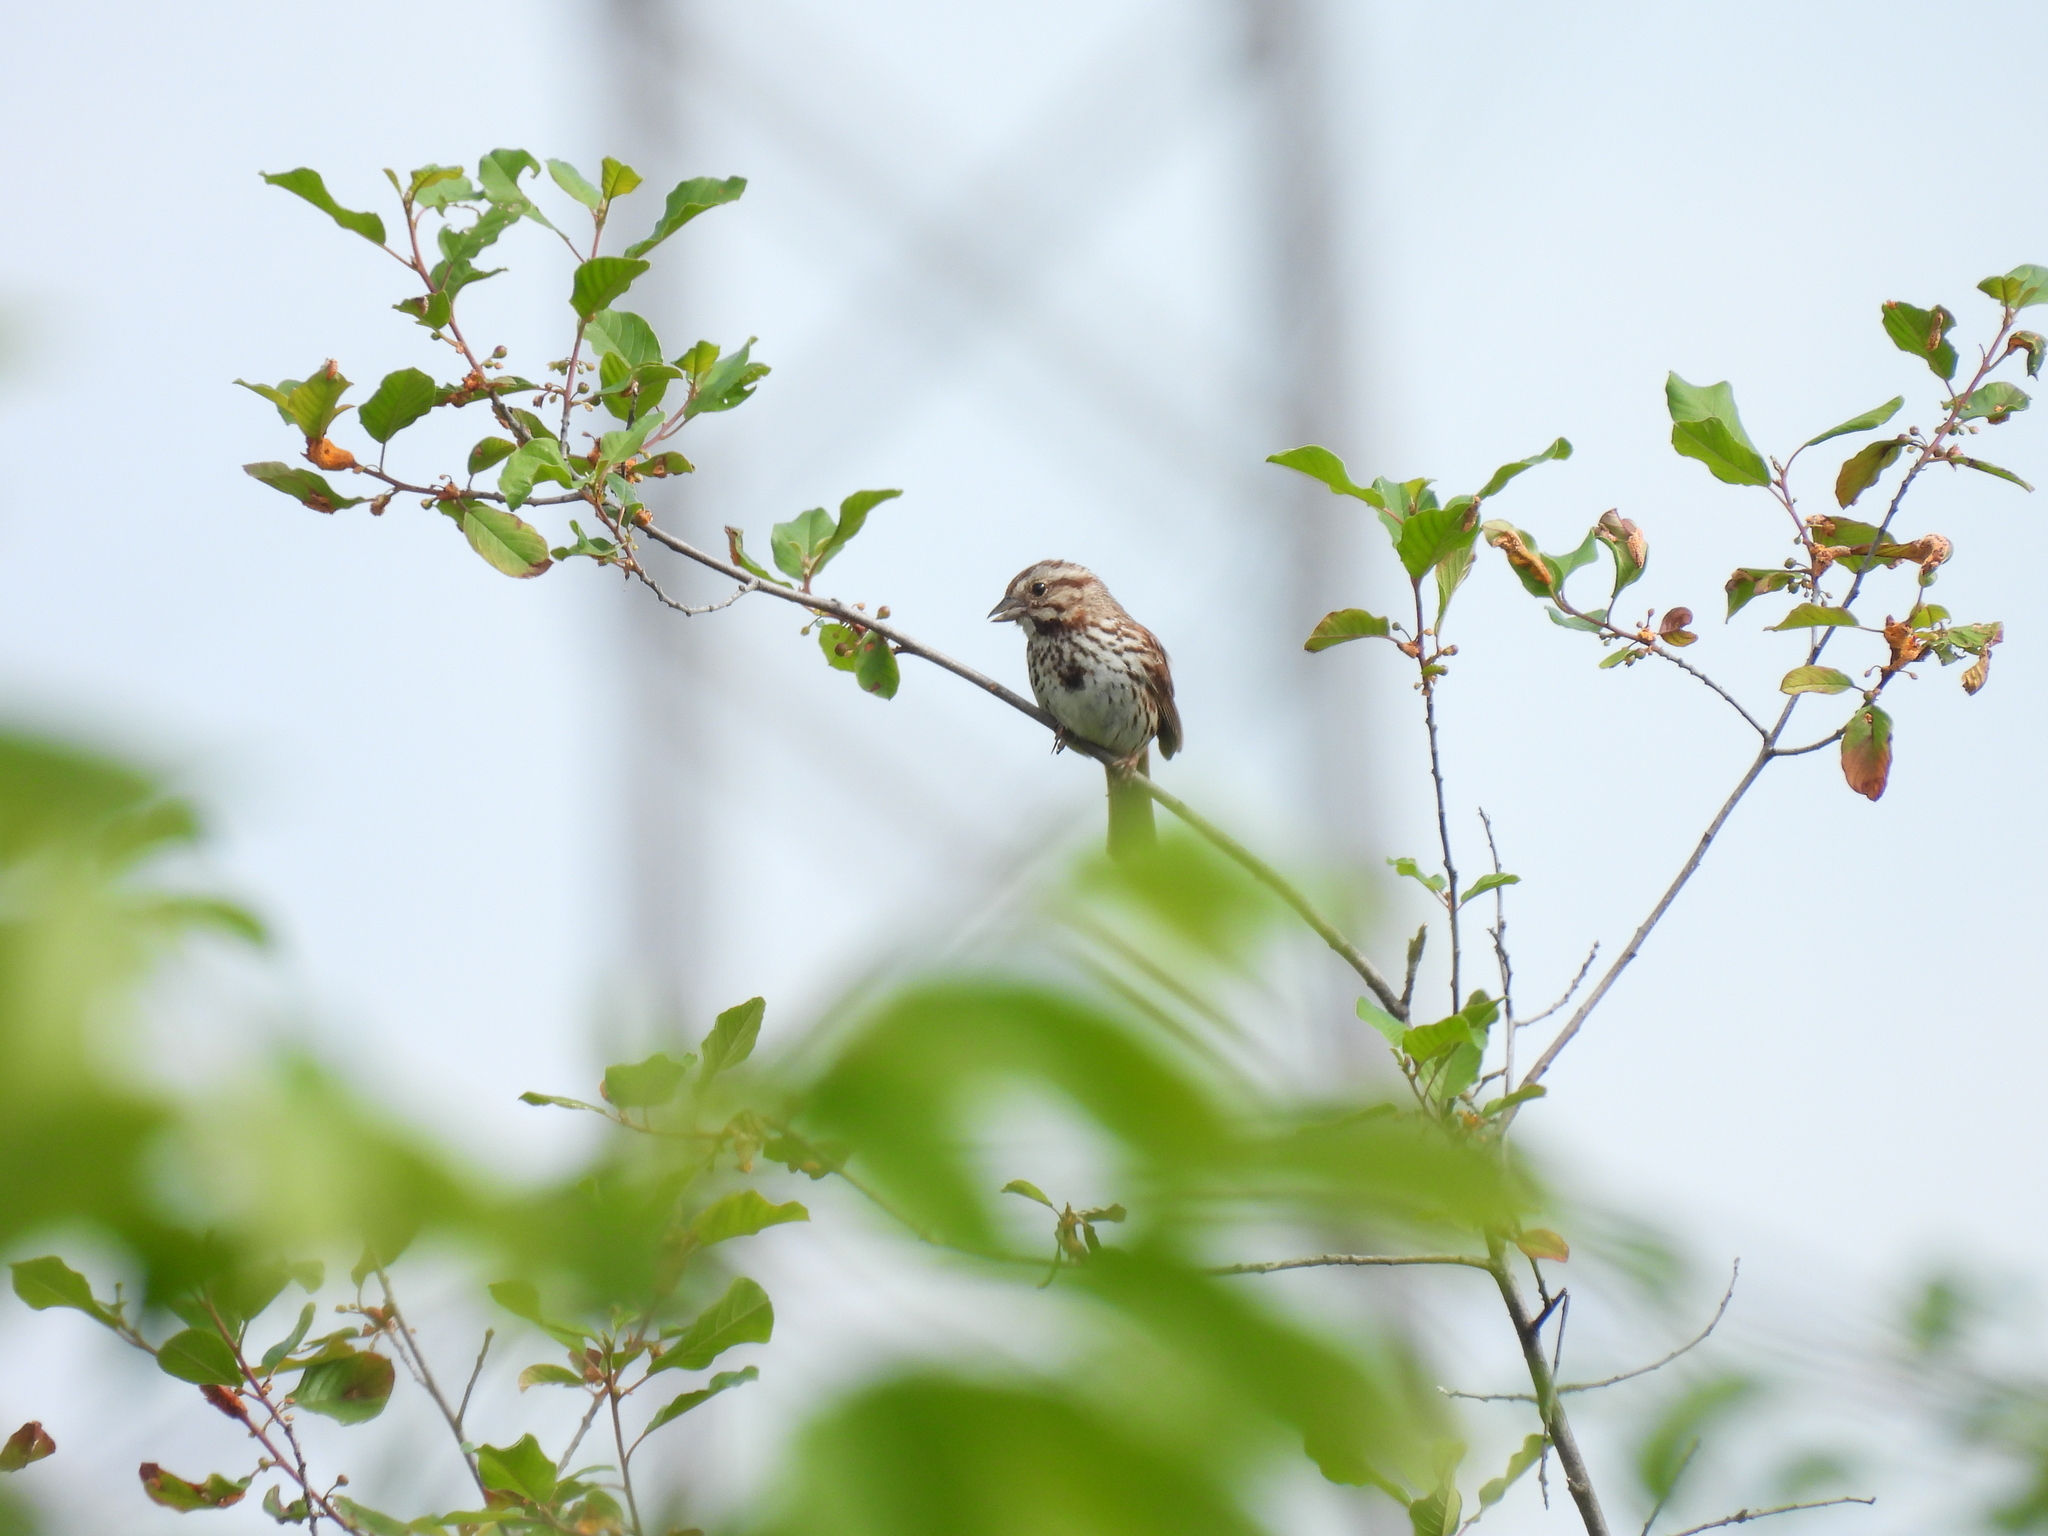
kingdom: Animalia
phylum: Chordata
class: Aves
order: Passeriformes
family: Passerellidae
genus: Melospiza
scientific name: Melospiza melodia
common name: Song sparrow
